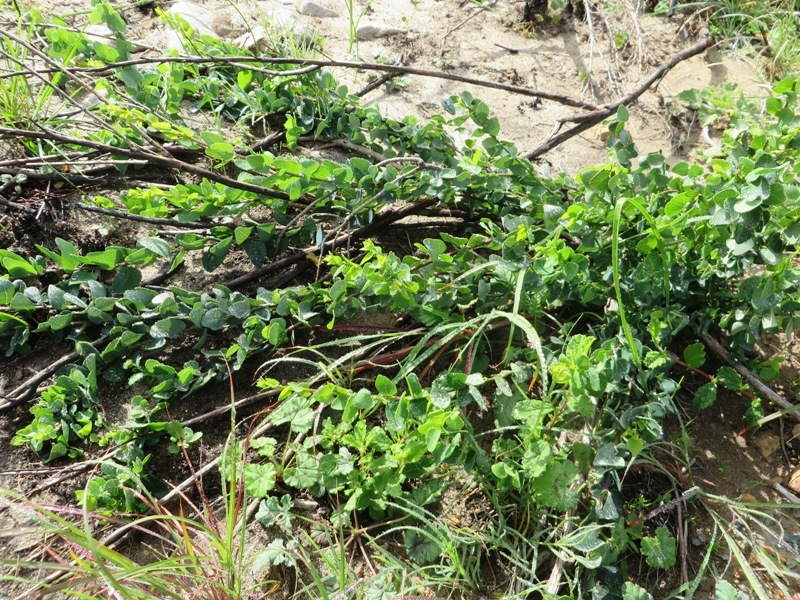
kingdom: Plantae
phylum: Tracheophyta
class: Magnoliopsida
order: Ranunculales
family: Menispermaceae
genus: Cissampelos
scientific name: Cissampelos capensis
